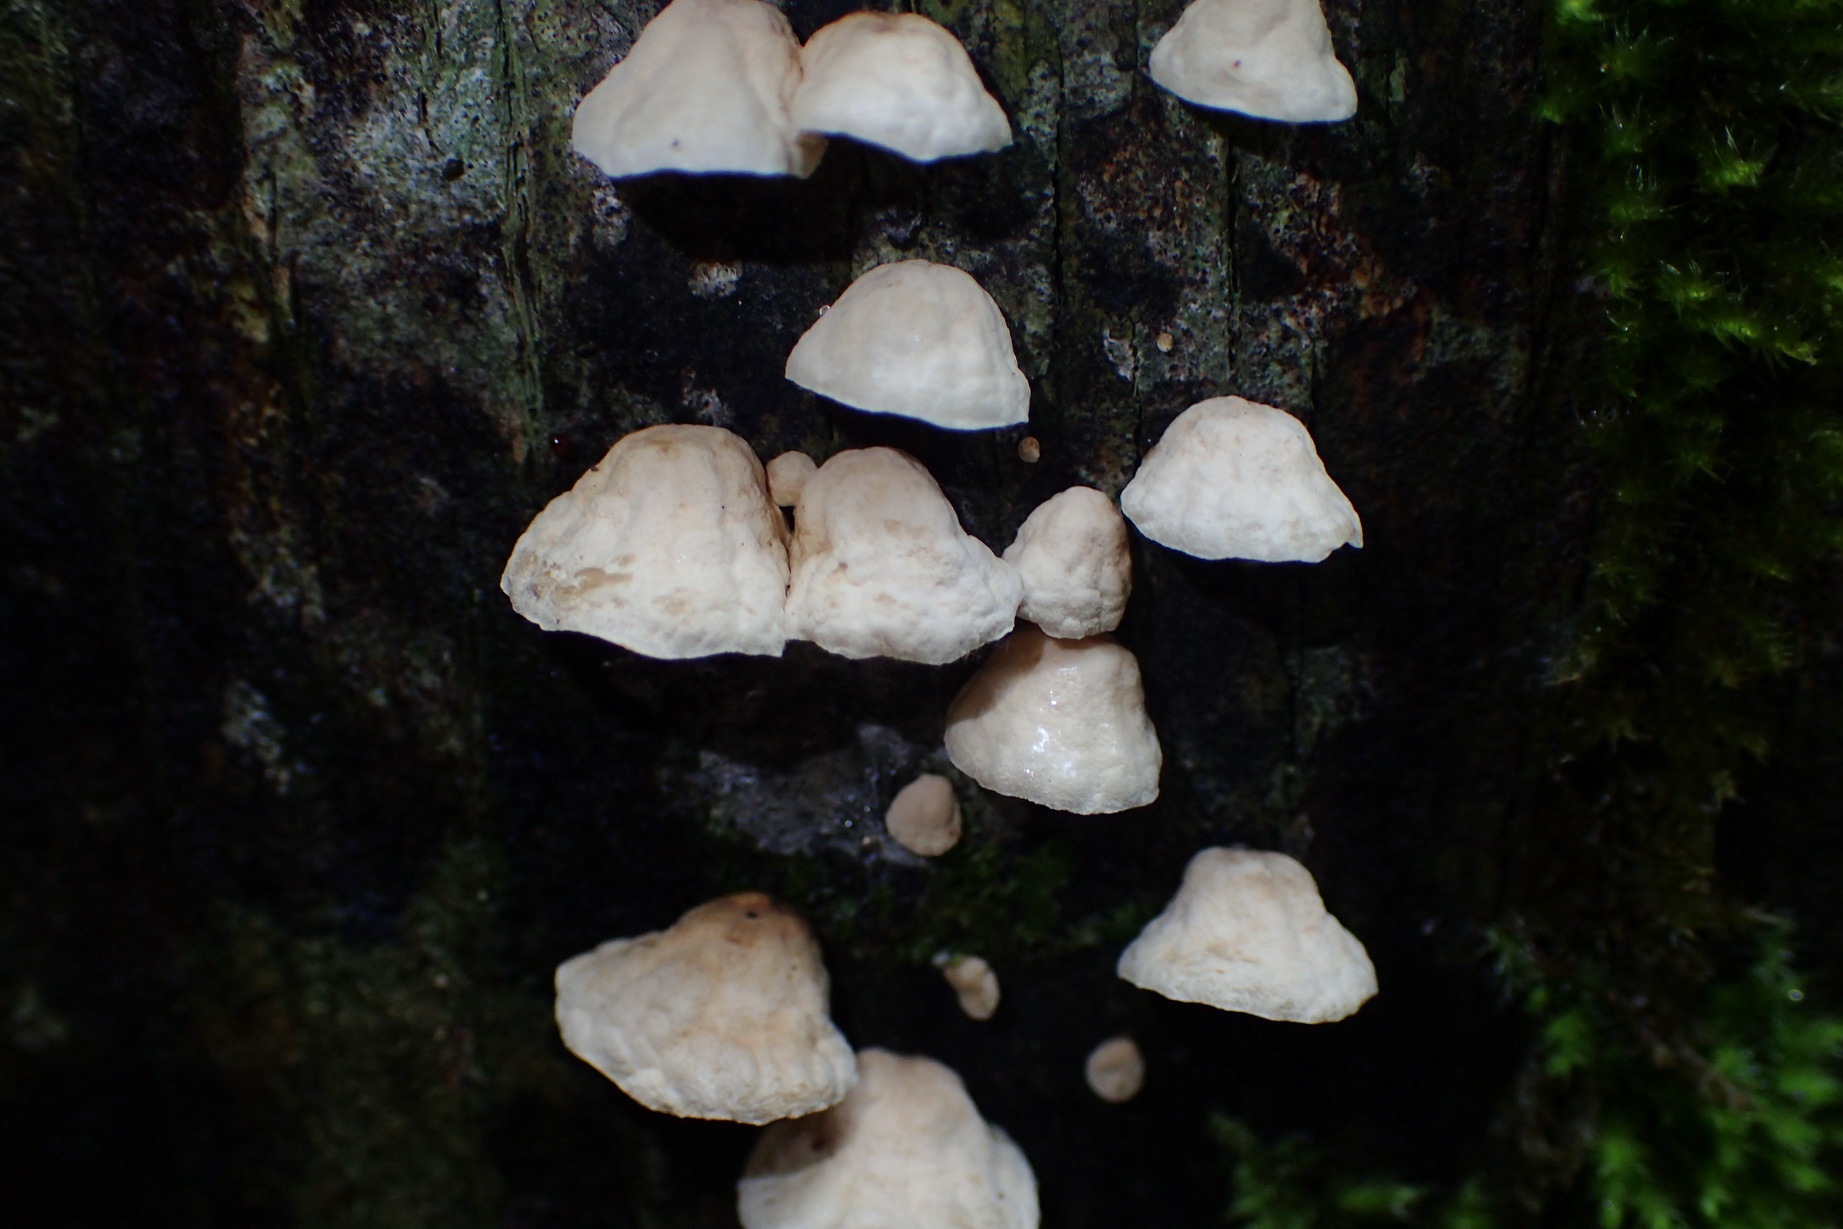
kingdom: Fungi
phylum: Basidiomycota
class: Agaricomycetes
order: Agaricales
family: Marasmiaceae
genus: Campanella
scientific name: Campanella capensis
